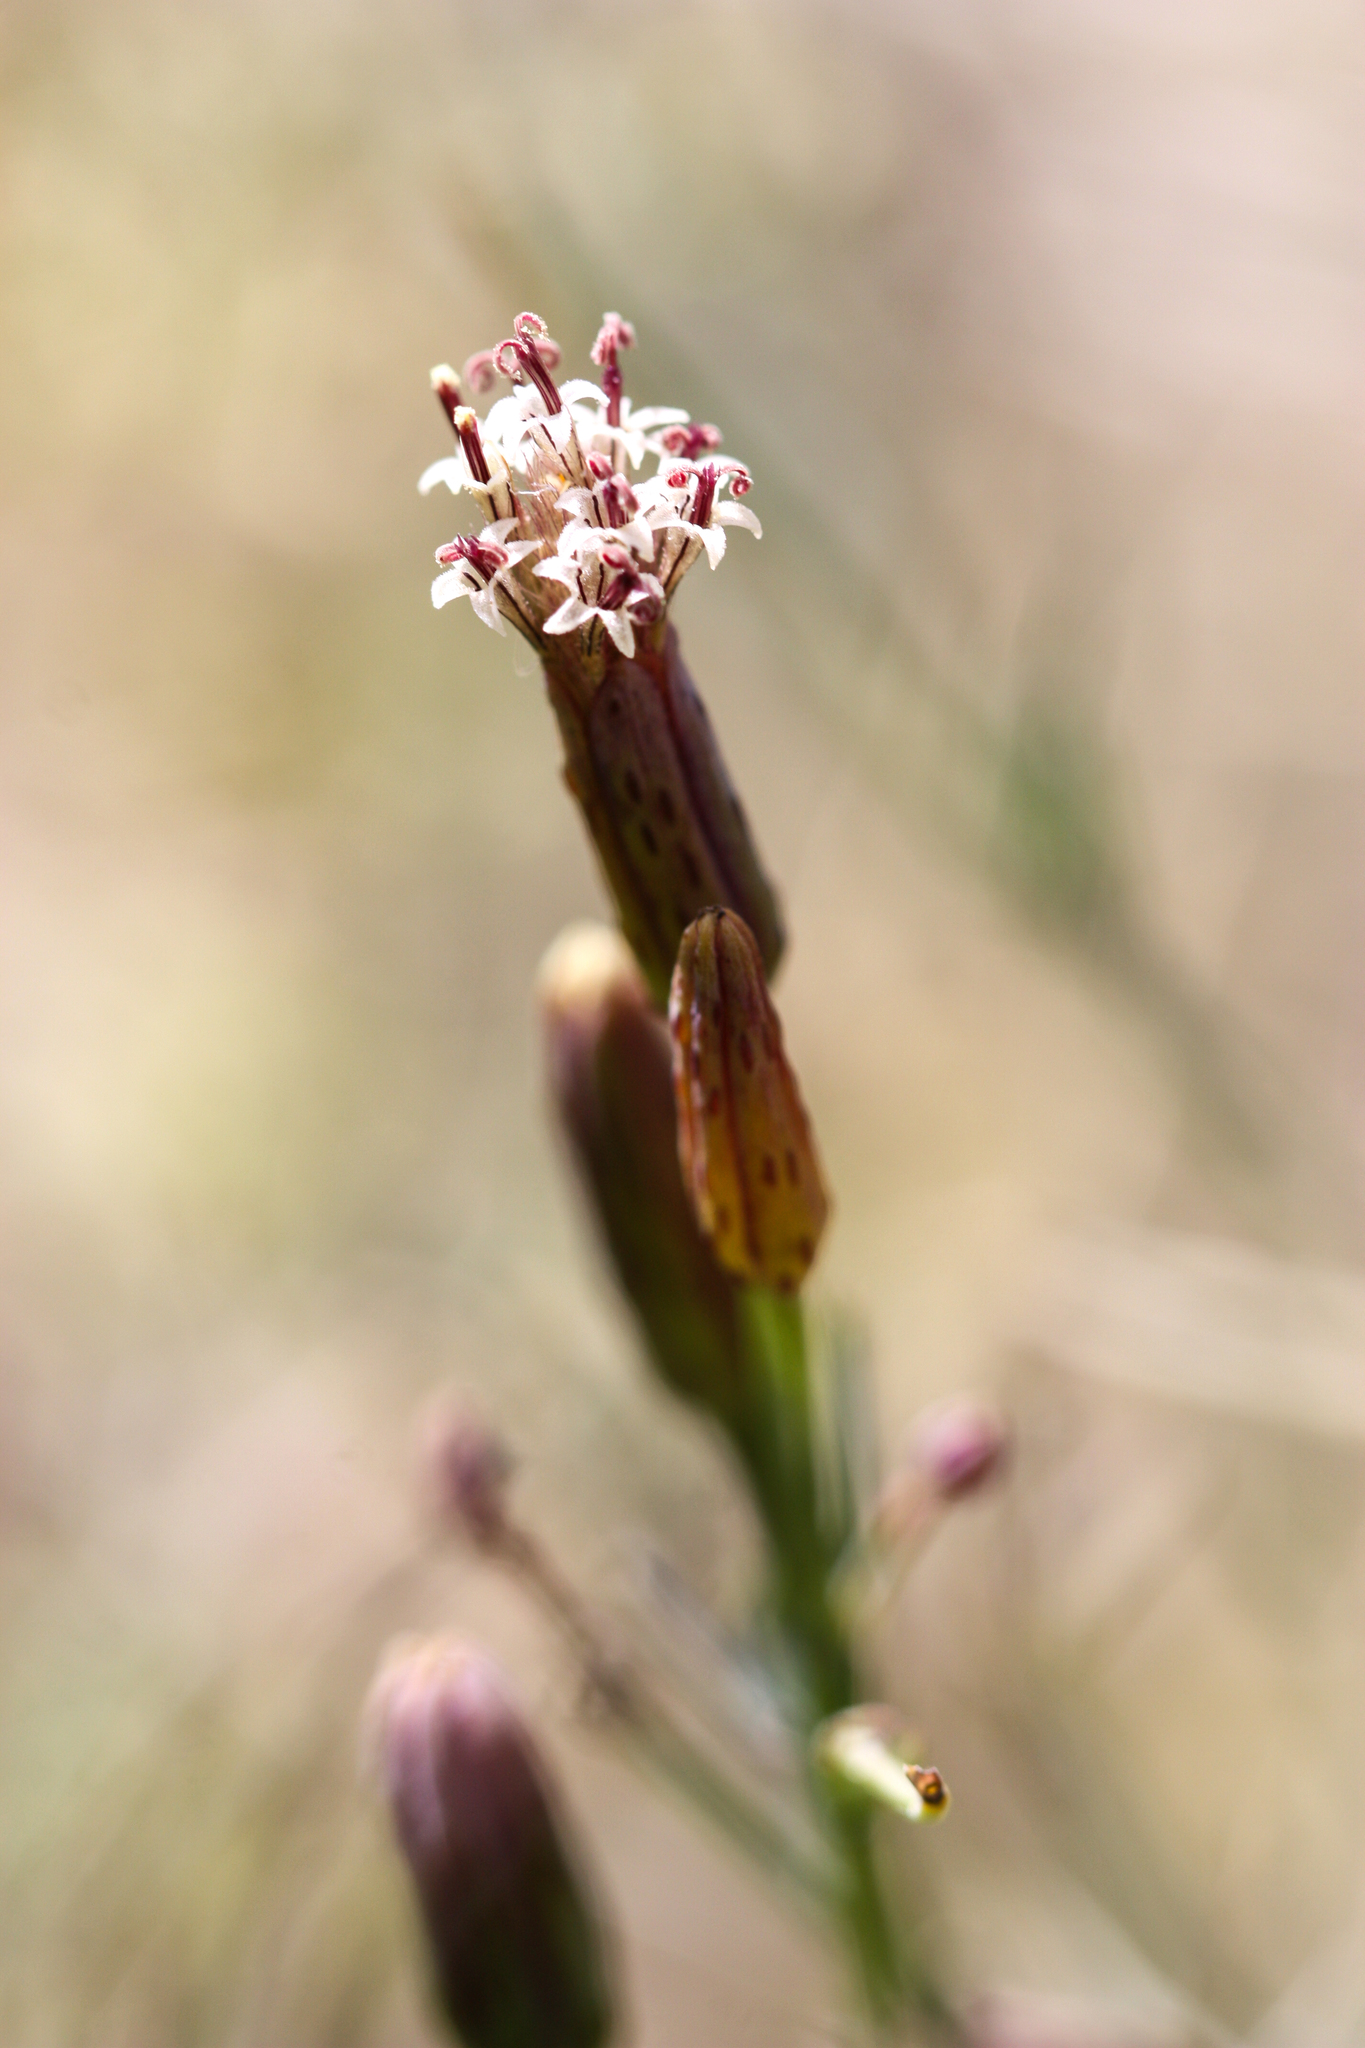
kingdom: Plantae
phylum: Tracheophyta
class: Magnoliopsida
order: Asterales
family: Asteraceae
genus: Porophyllum
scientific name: Porophyllum gracile
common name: Odora
